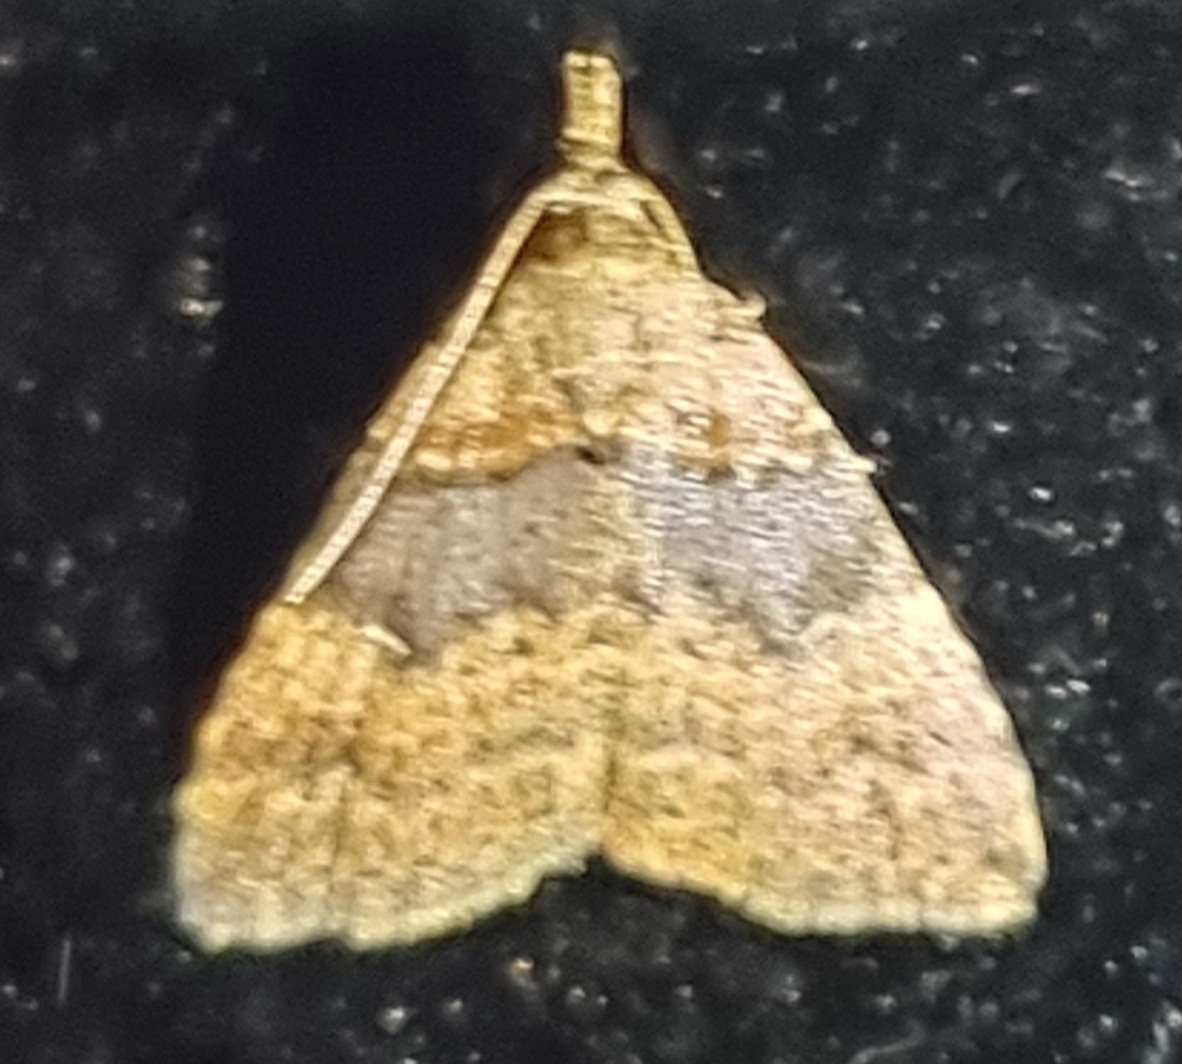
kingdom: Animalia
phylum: Arthropoda
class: Insecta
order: Lepidoptera
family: Erebidae
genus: Alapadna
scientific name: Alapadna pauropis
